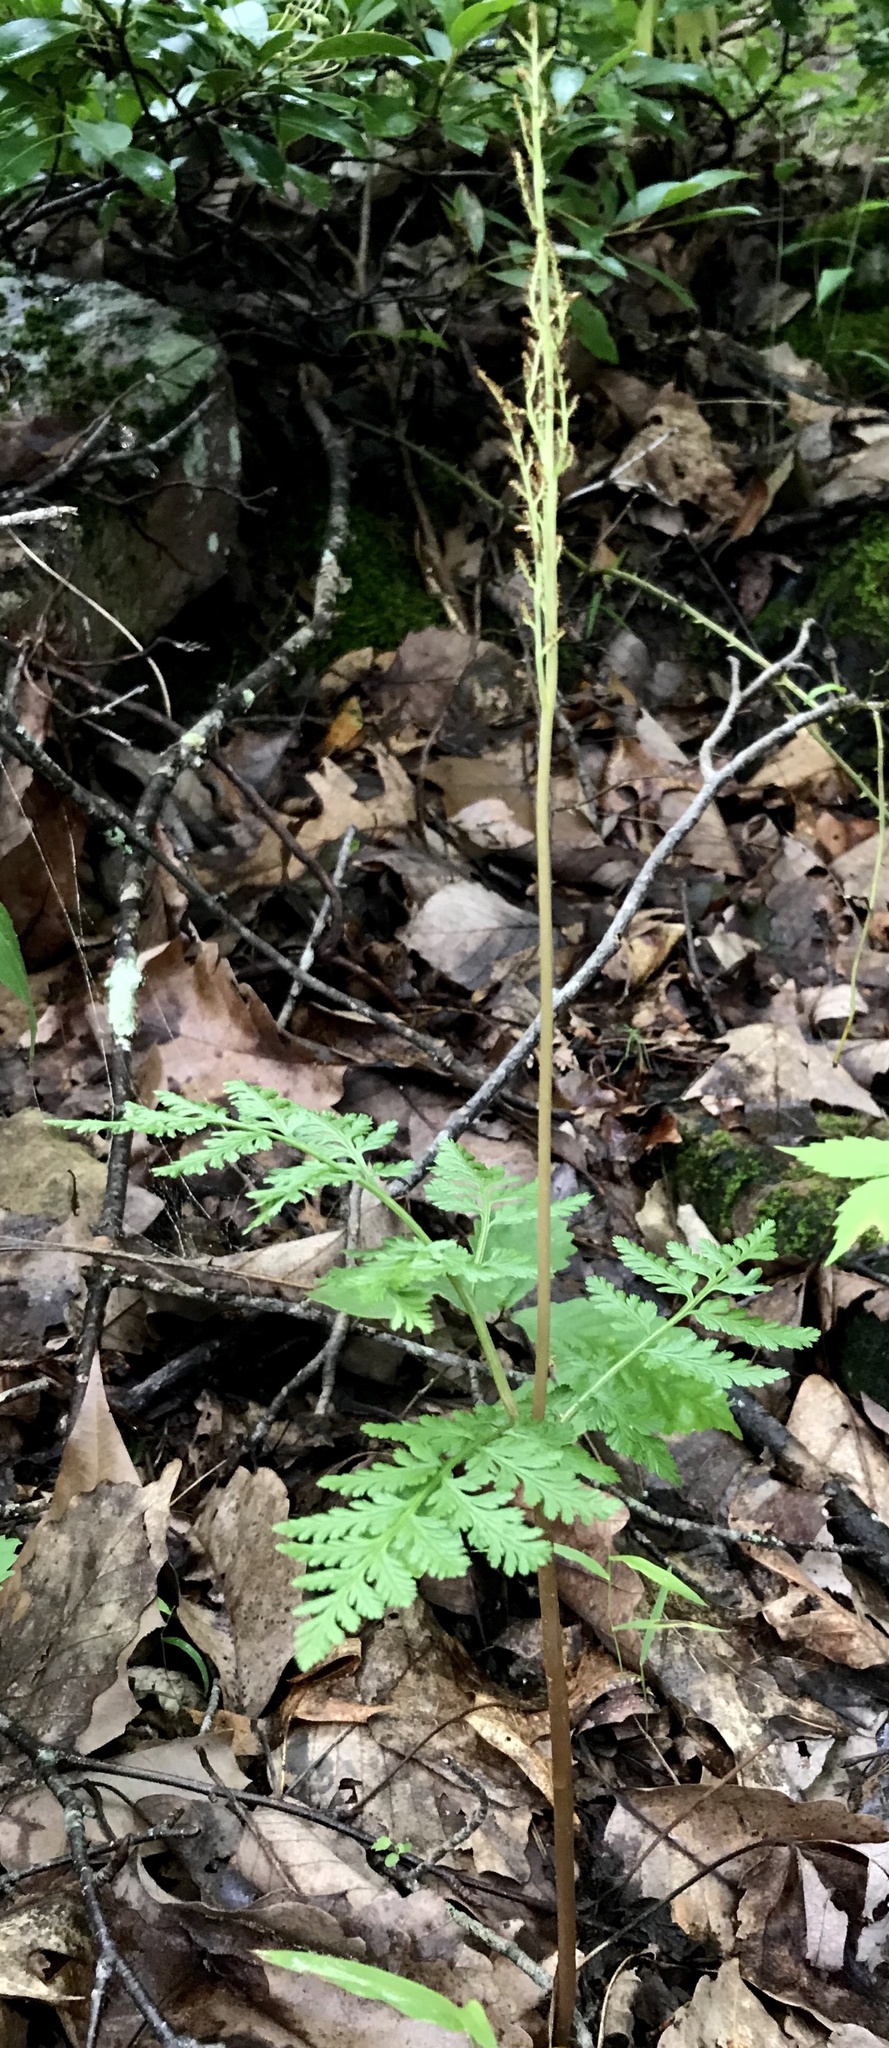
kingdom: Plantae
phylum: Tracheophyta
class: Polypodiopsida
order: Ophioglossales
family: Ophioglossaceae
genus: Botrypus
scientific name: Botrypus virginianus
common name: Common grapefern
